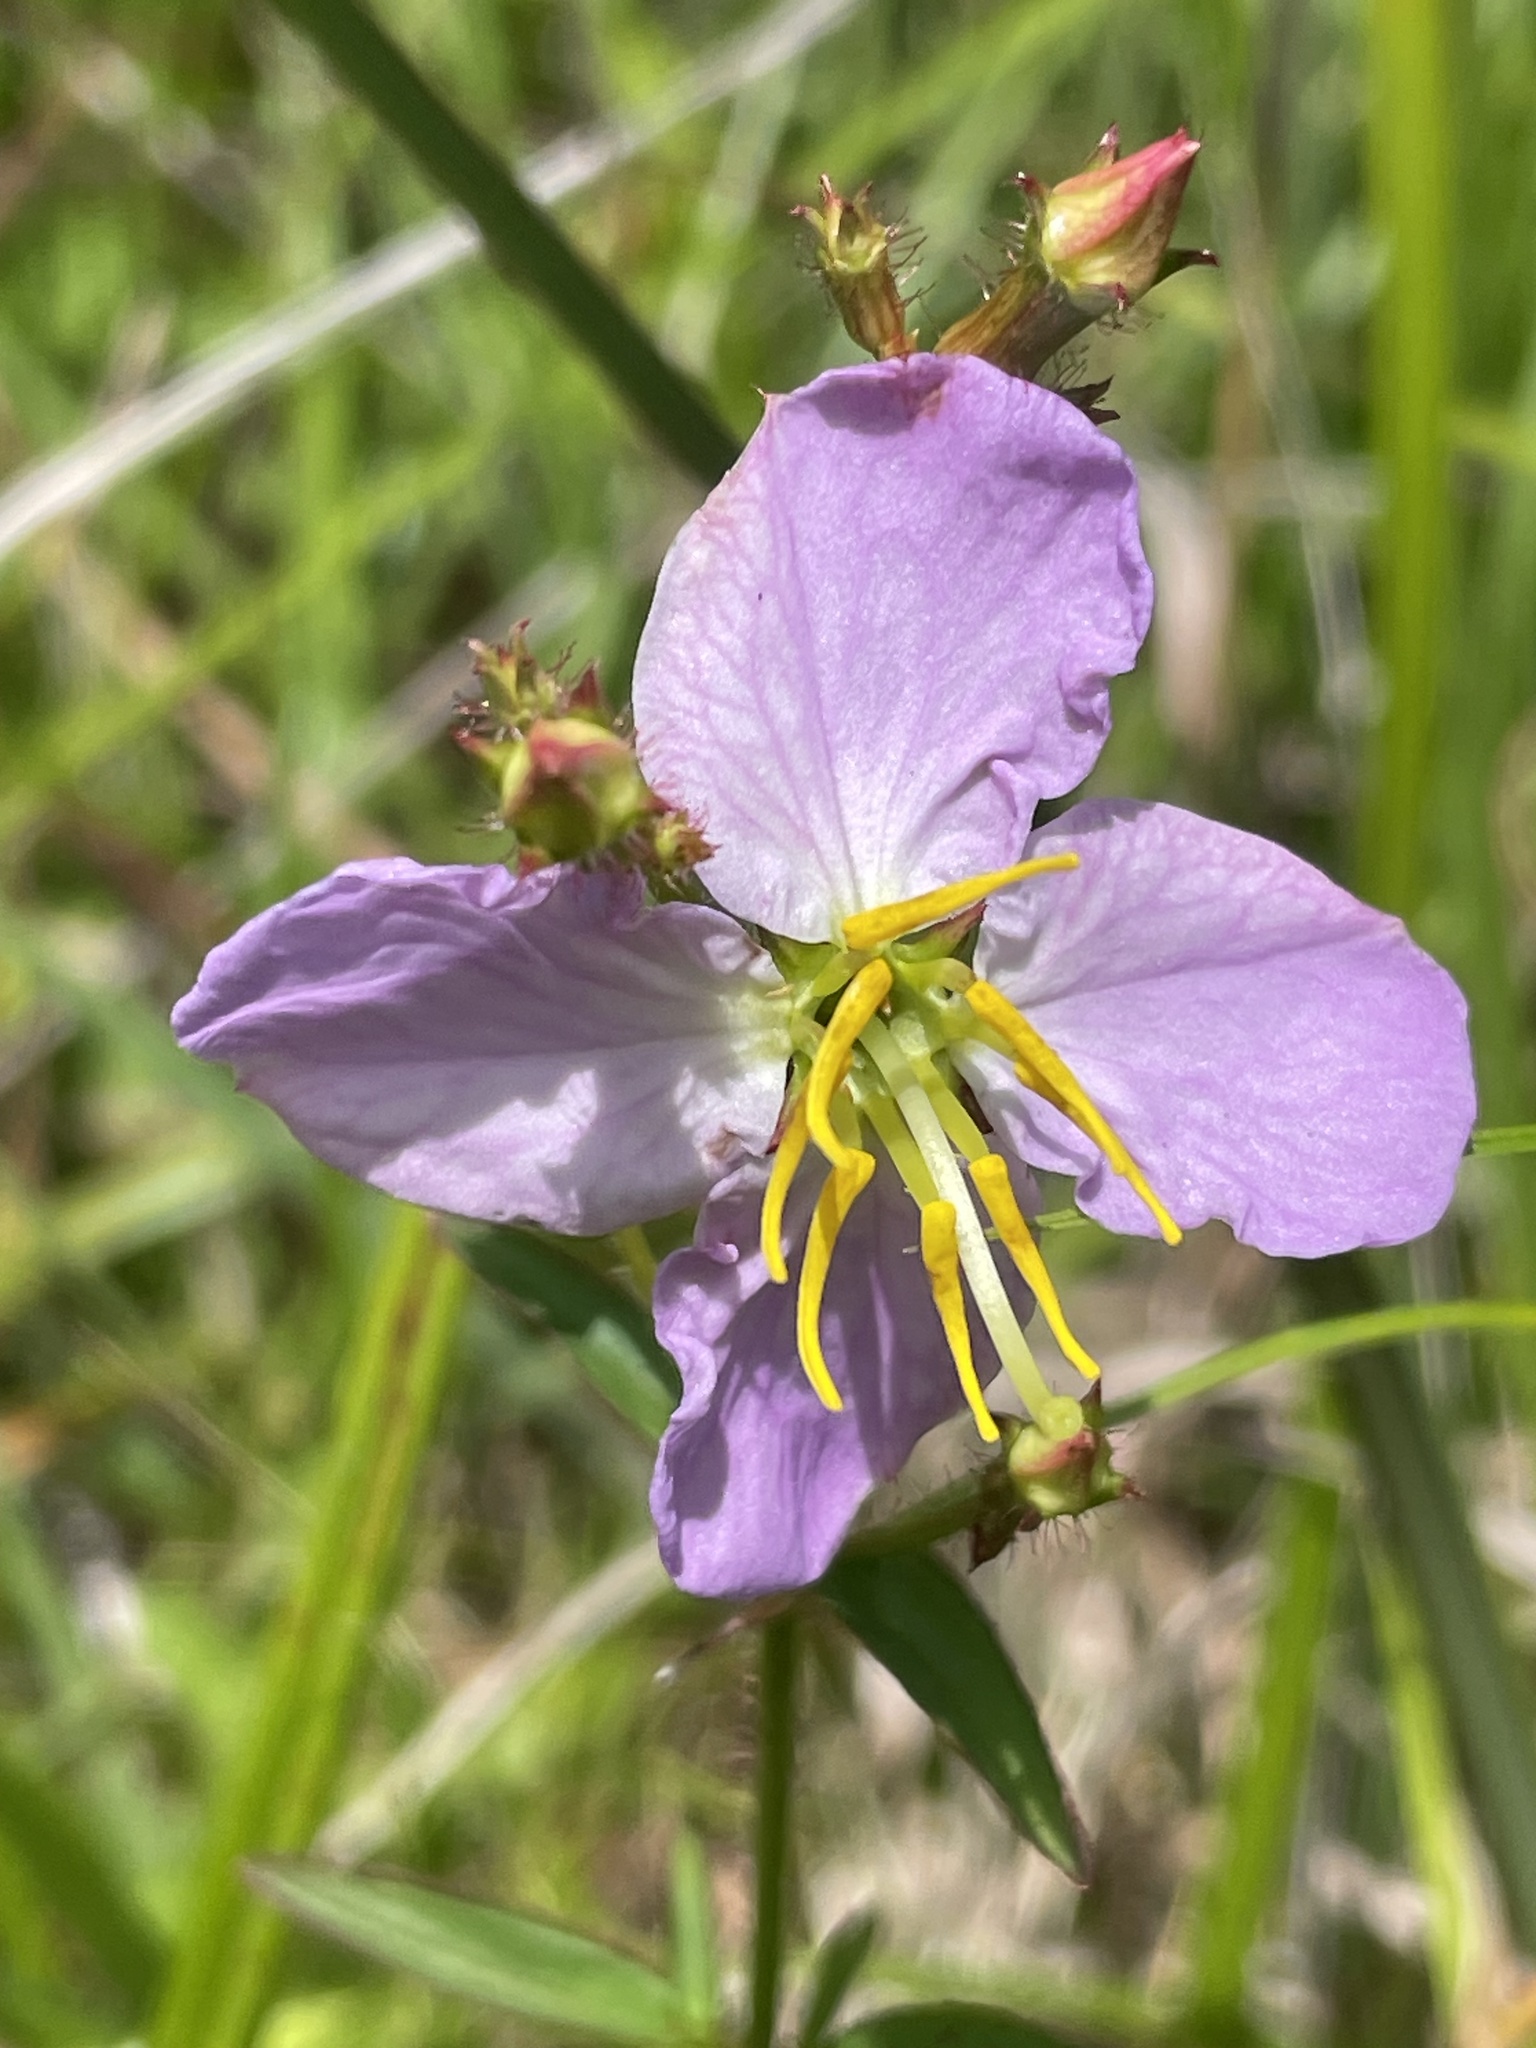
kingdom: Plantae
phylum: Tracheophyta
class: Magnoliopsida
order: Myrtales
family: Melastomataceae
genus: Rhexia
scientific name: Rhexia mariana
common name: Dull meadow-pitcher
